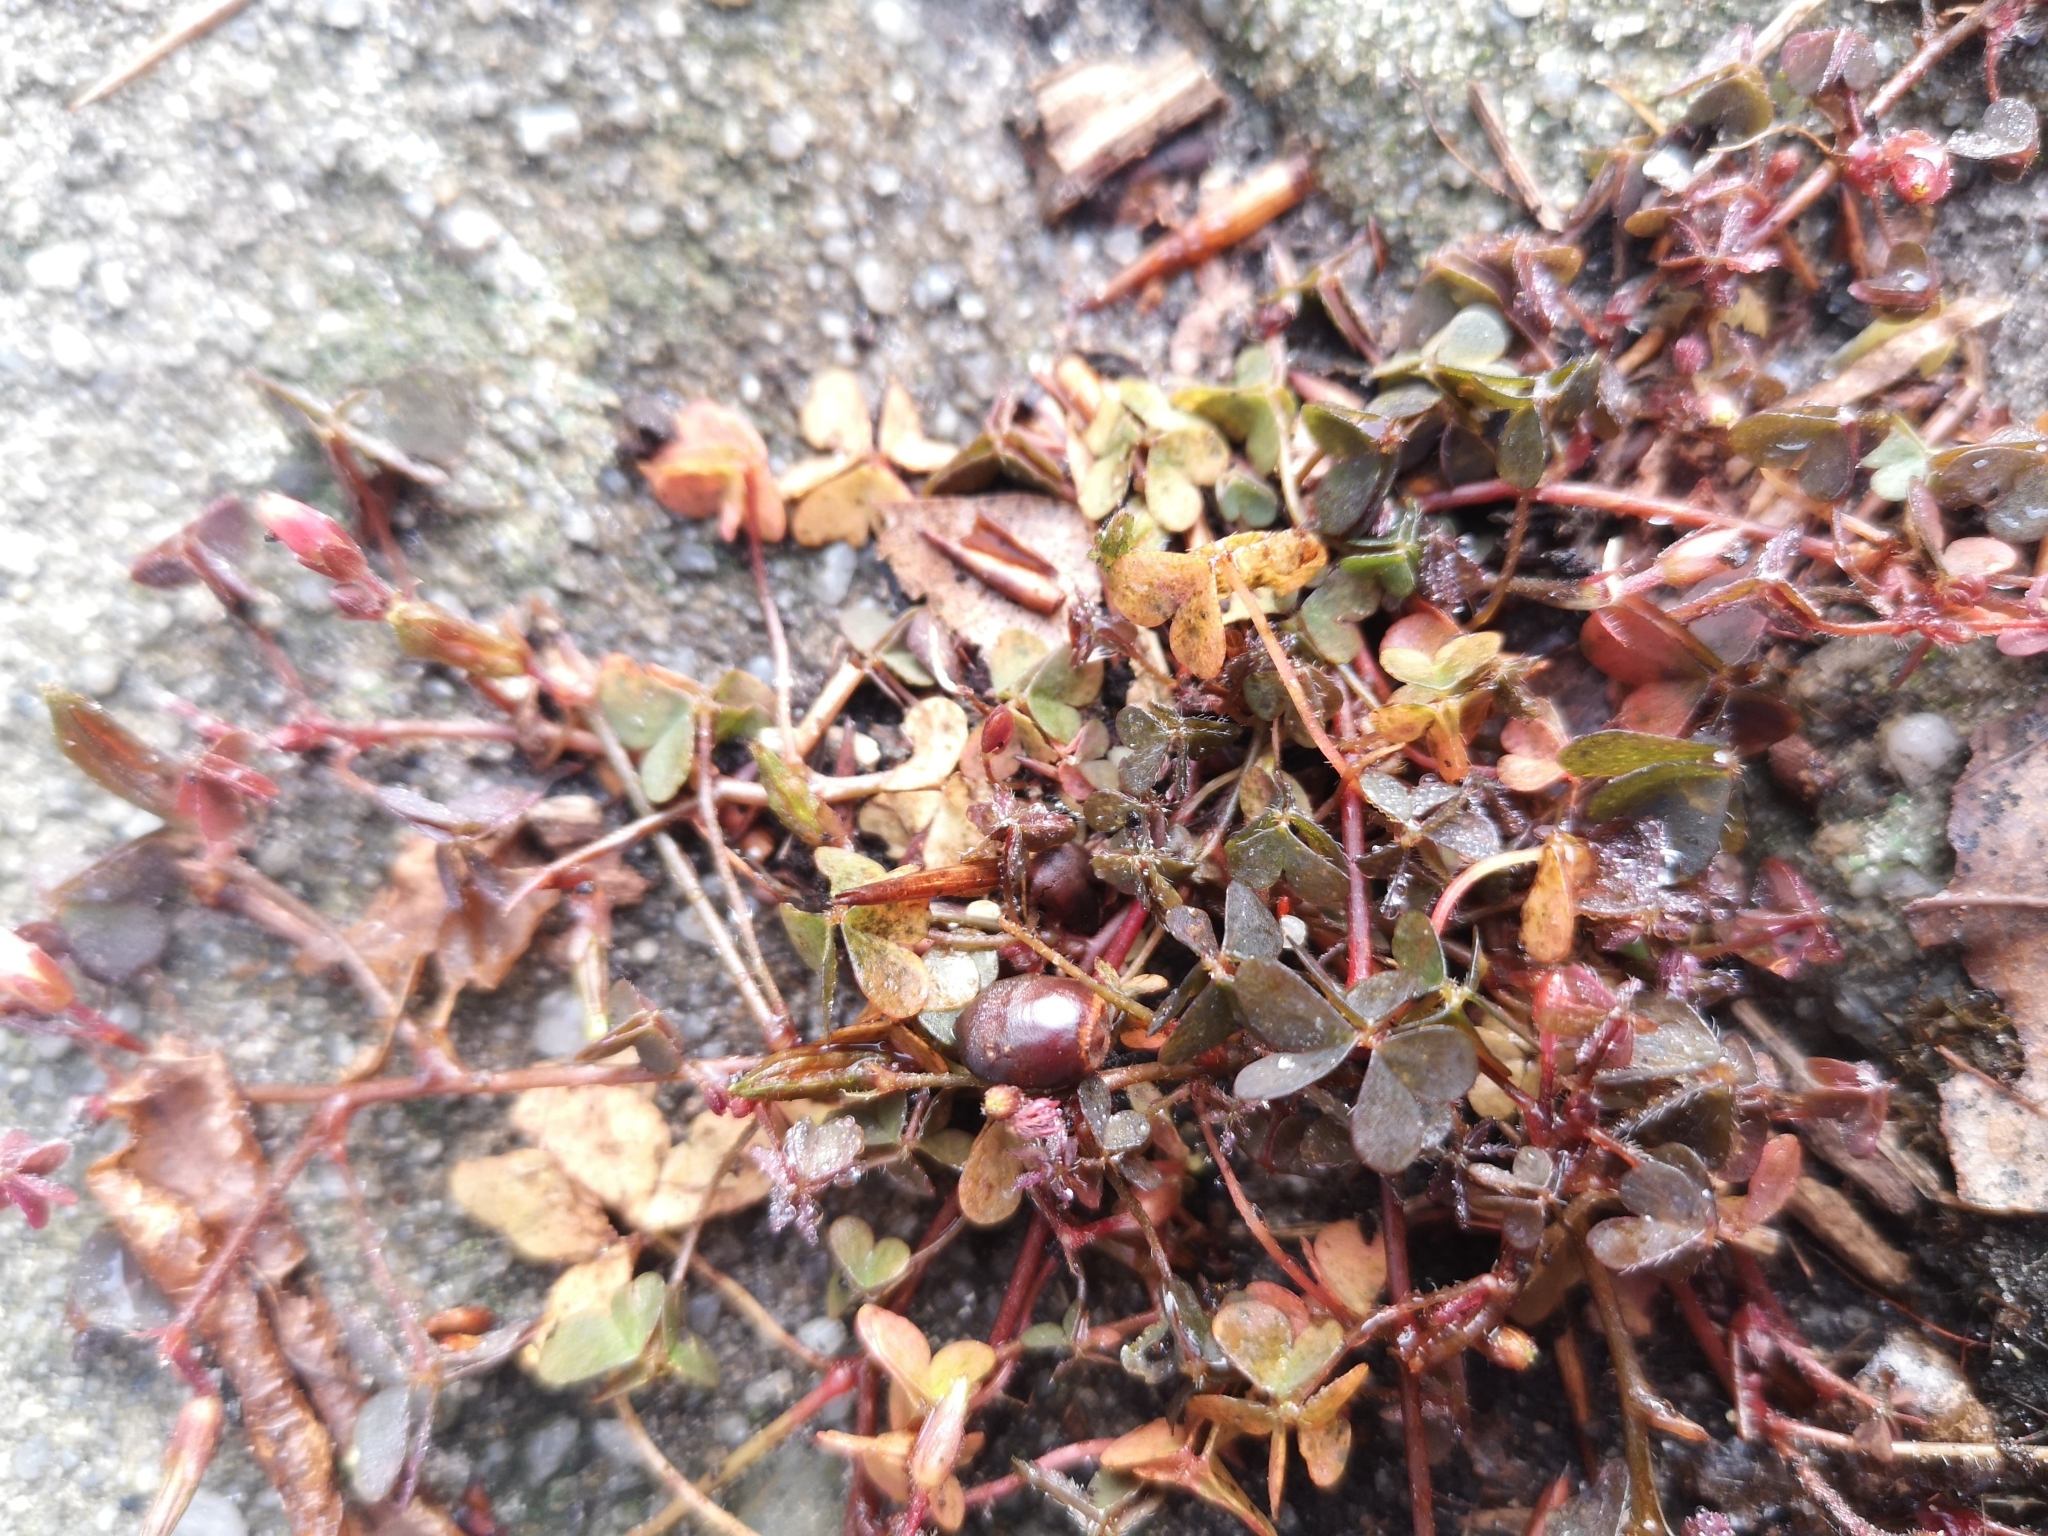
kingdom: Plantae
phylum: Tracheophyta
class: Magnoliopsida
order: Oxalidales
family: Oxalidaceae
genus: Oxalis
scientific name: Oxalis corniculata
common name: Procumbent yellow-sorrel
